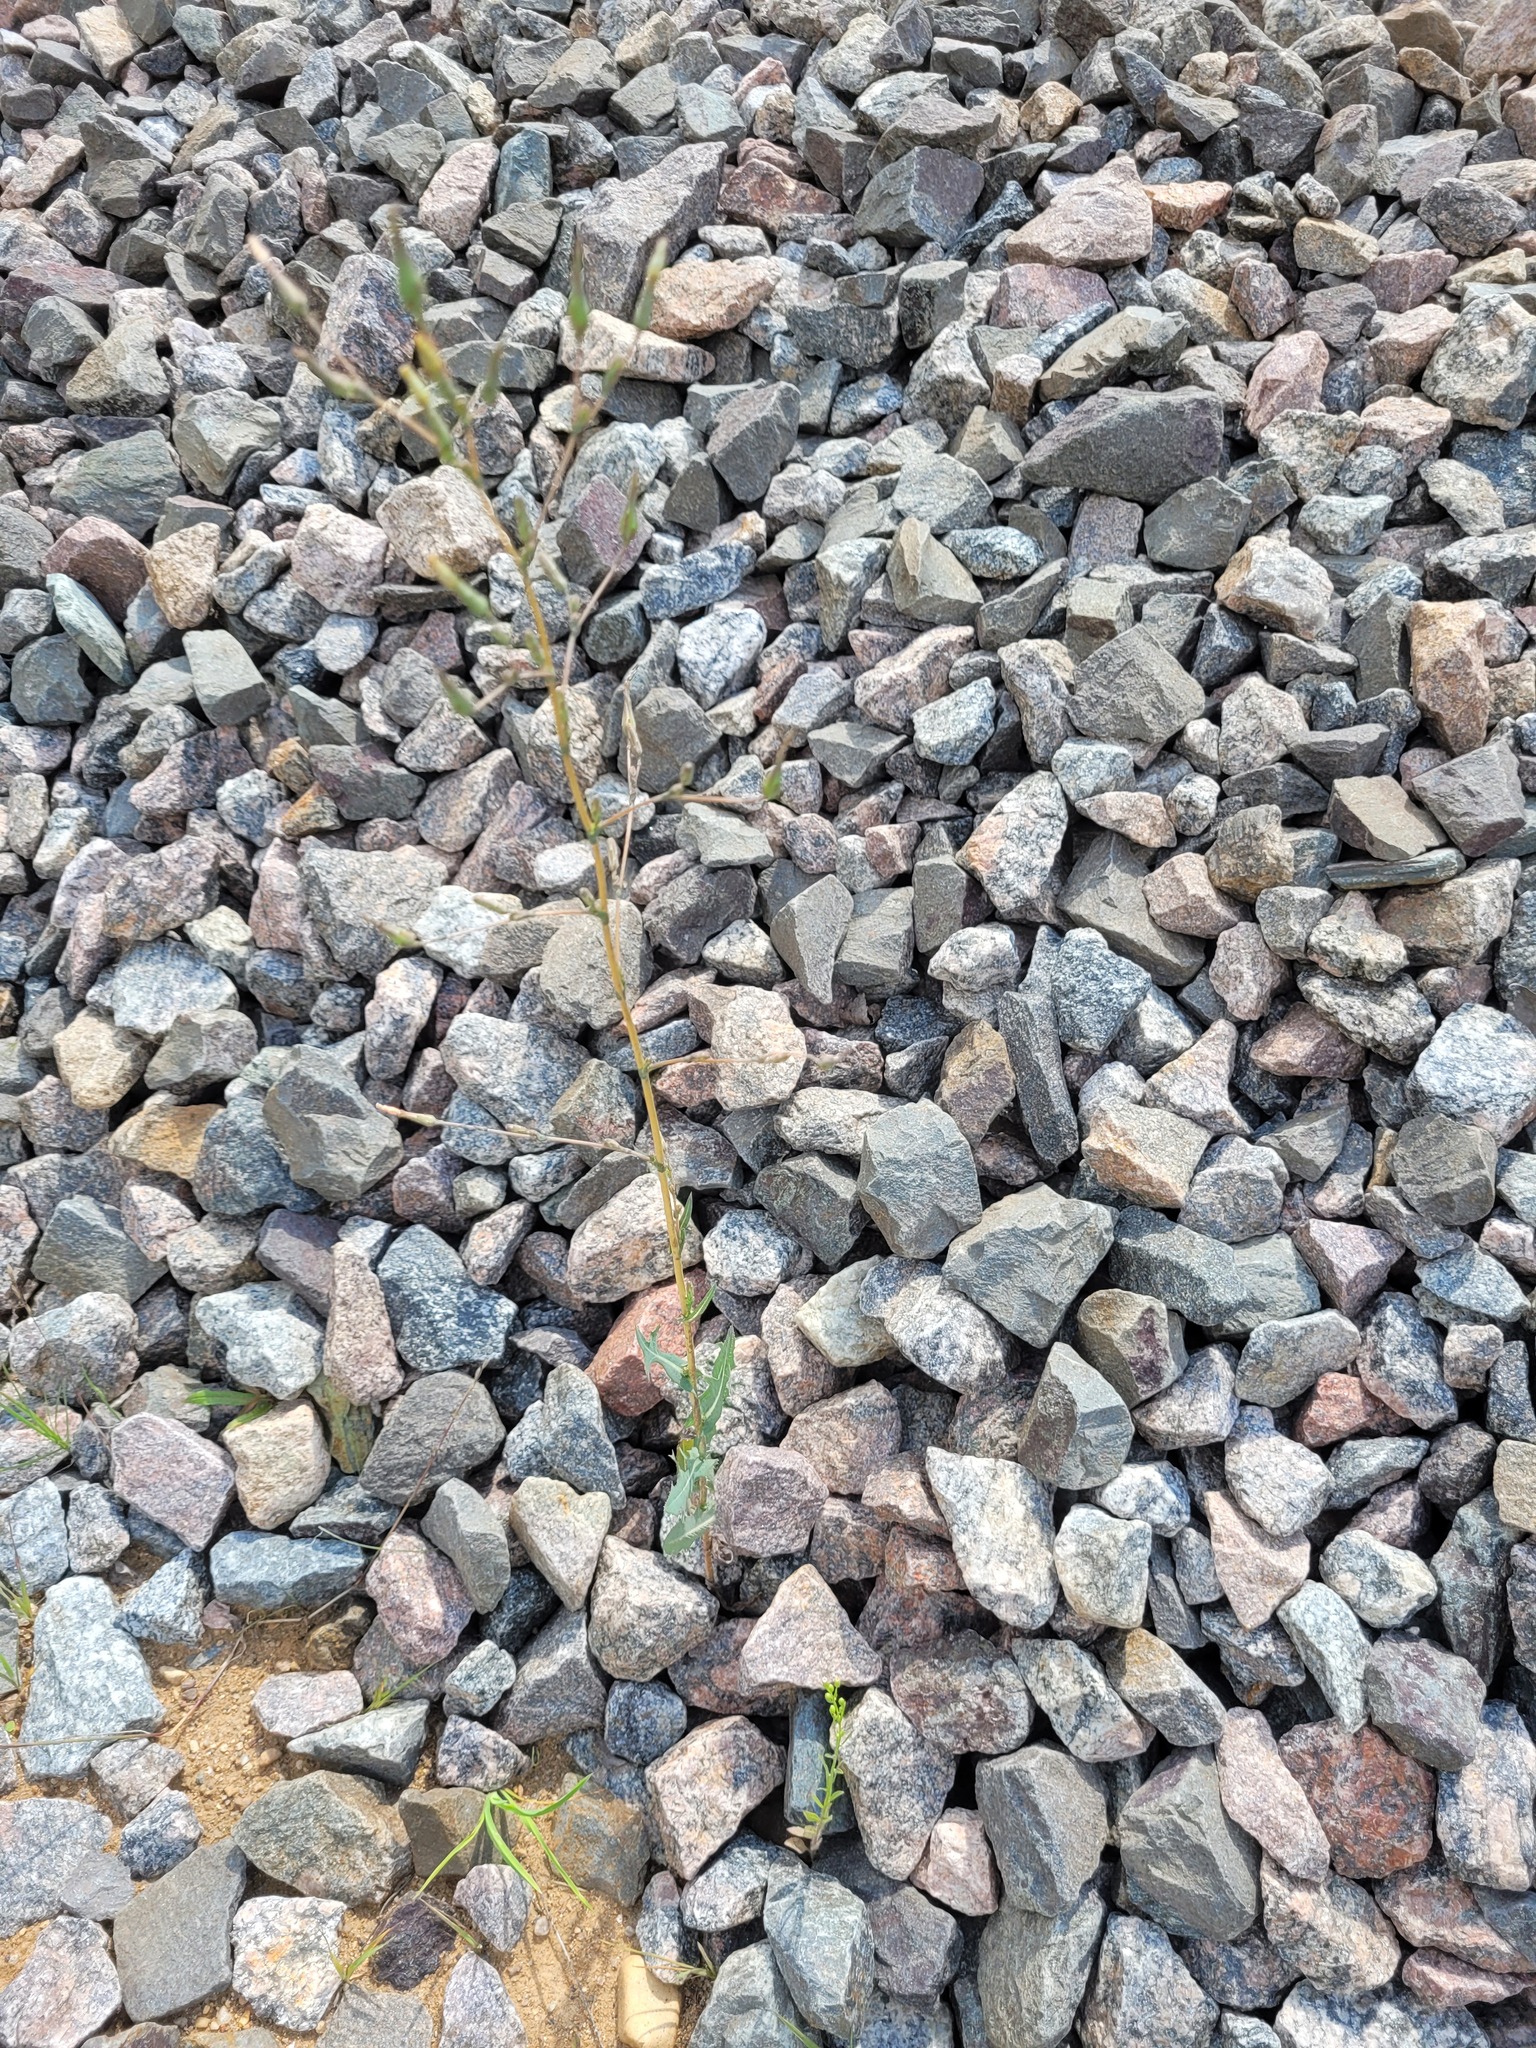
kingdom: Plantae
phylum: Tracheophyta
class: Magnoliopsida
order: Asterales
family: Asteraceae
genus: Lactuca
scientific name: Lactuca serriola
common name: Prickly lettuce
